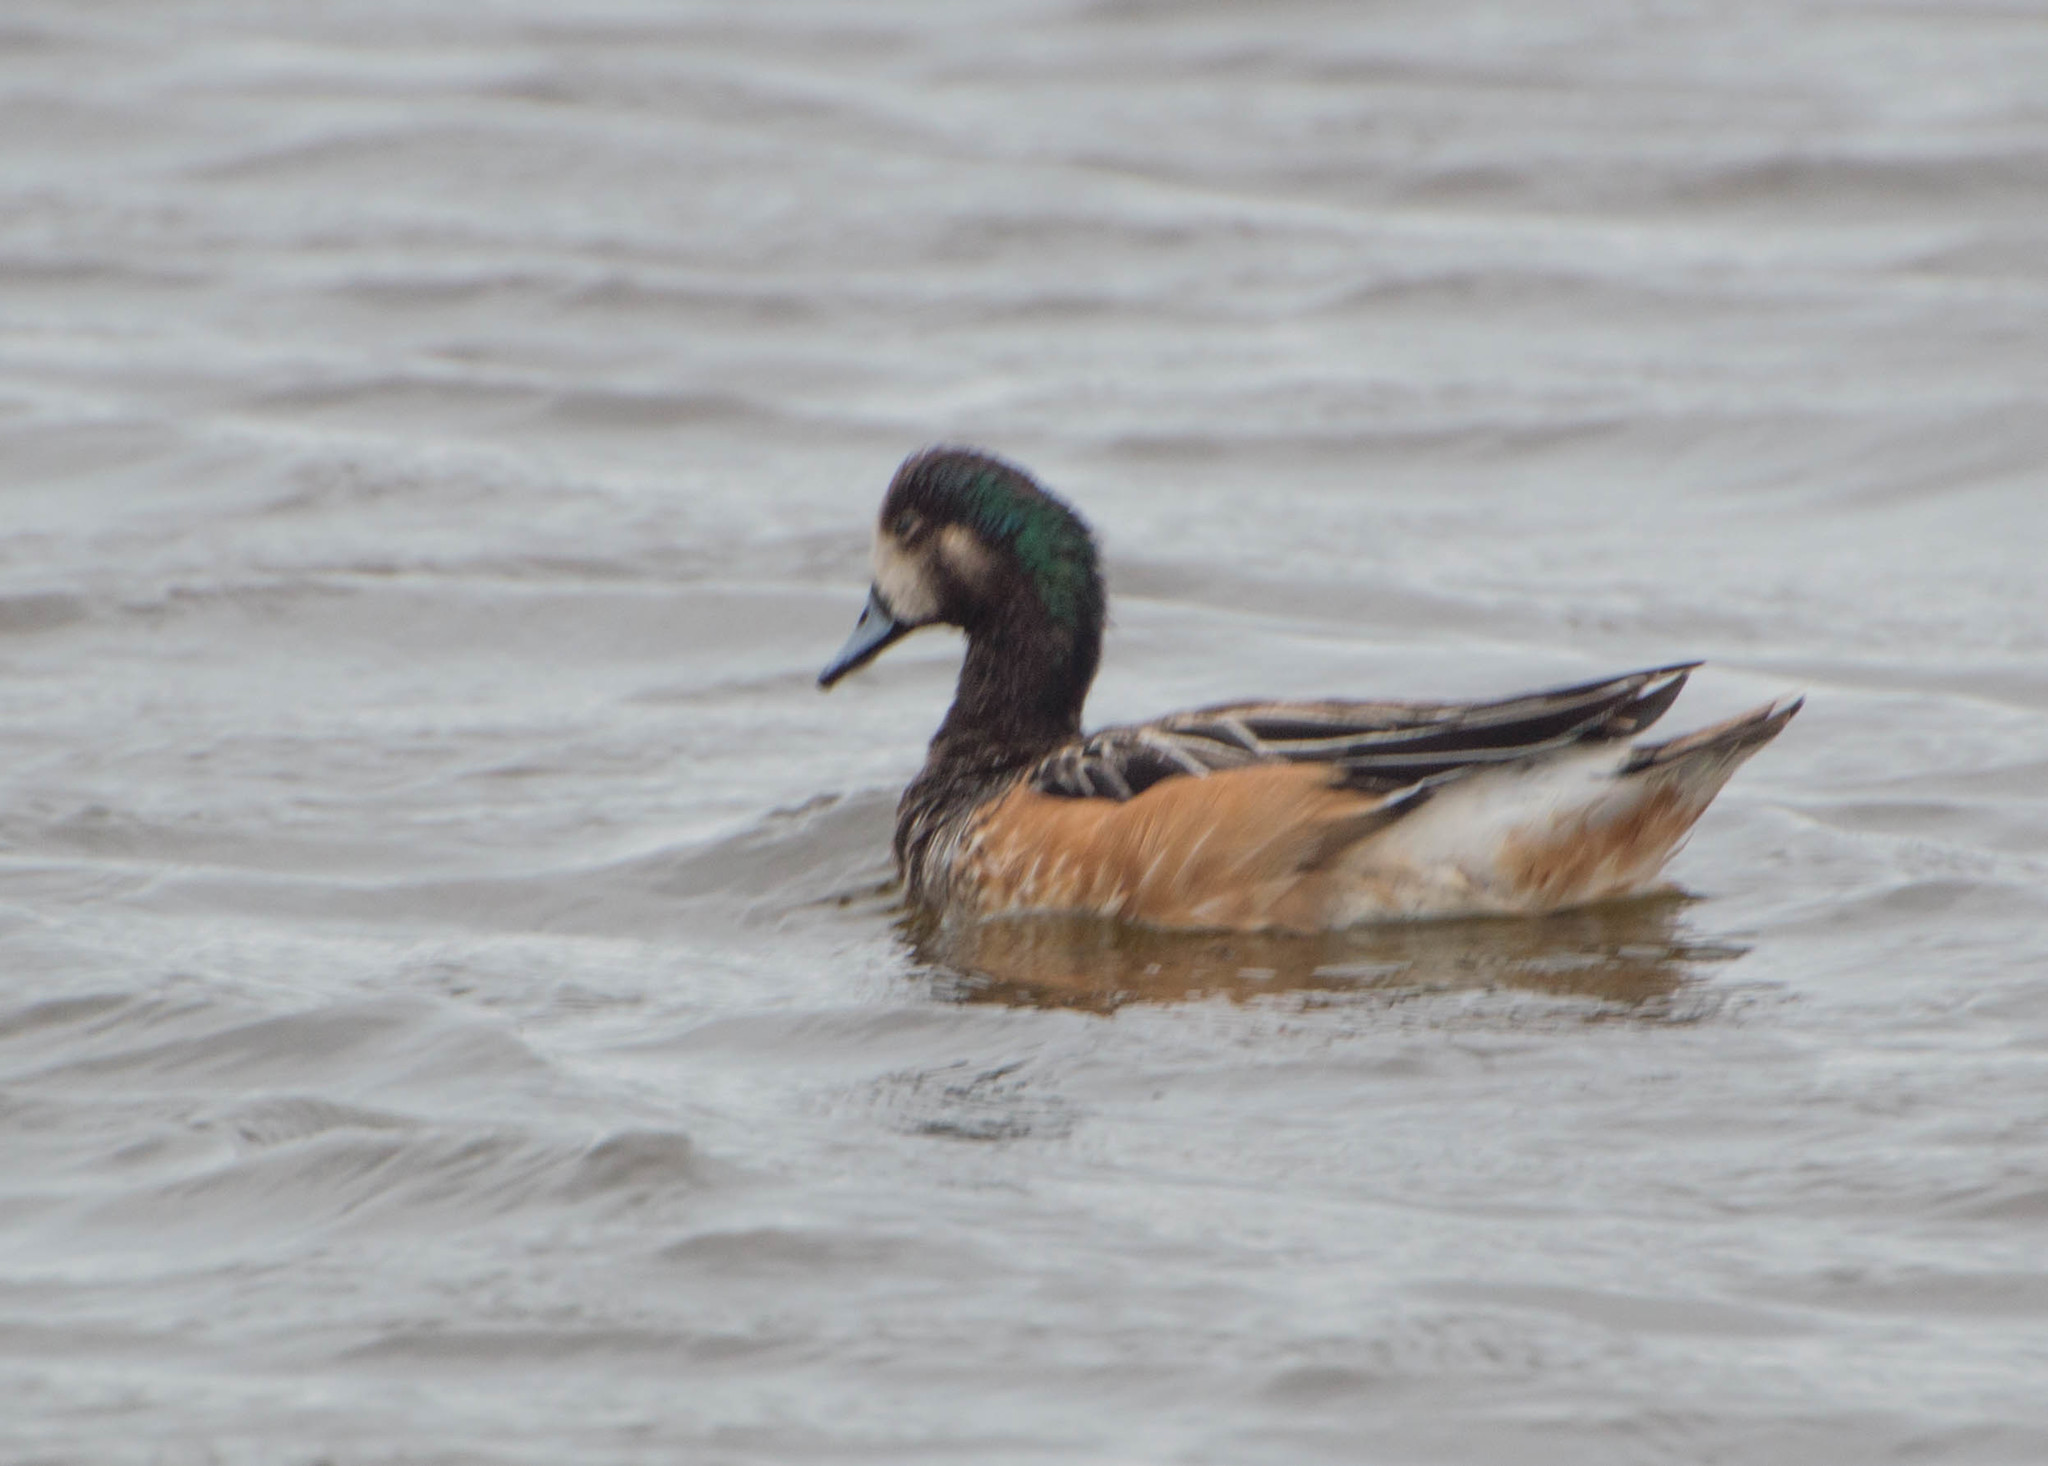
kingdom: Animalia
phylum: Chordata
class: Aves
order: Anseriformes
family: Anatidae
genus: Mareca
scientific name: Mareca sibilatrix
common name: Chiloe wigeon
